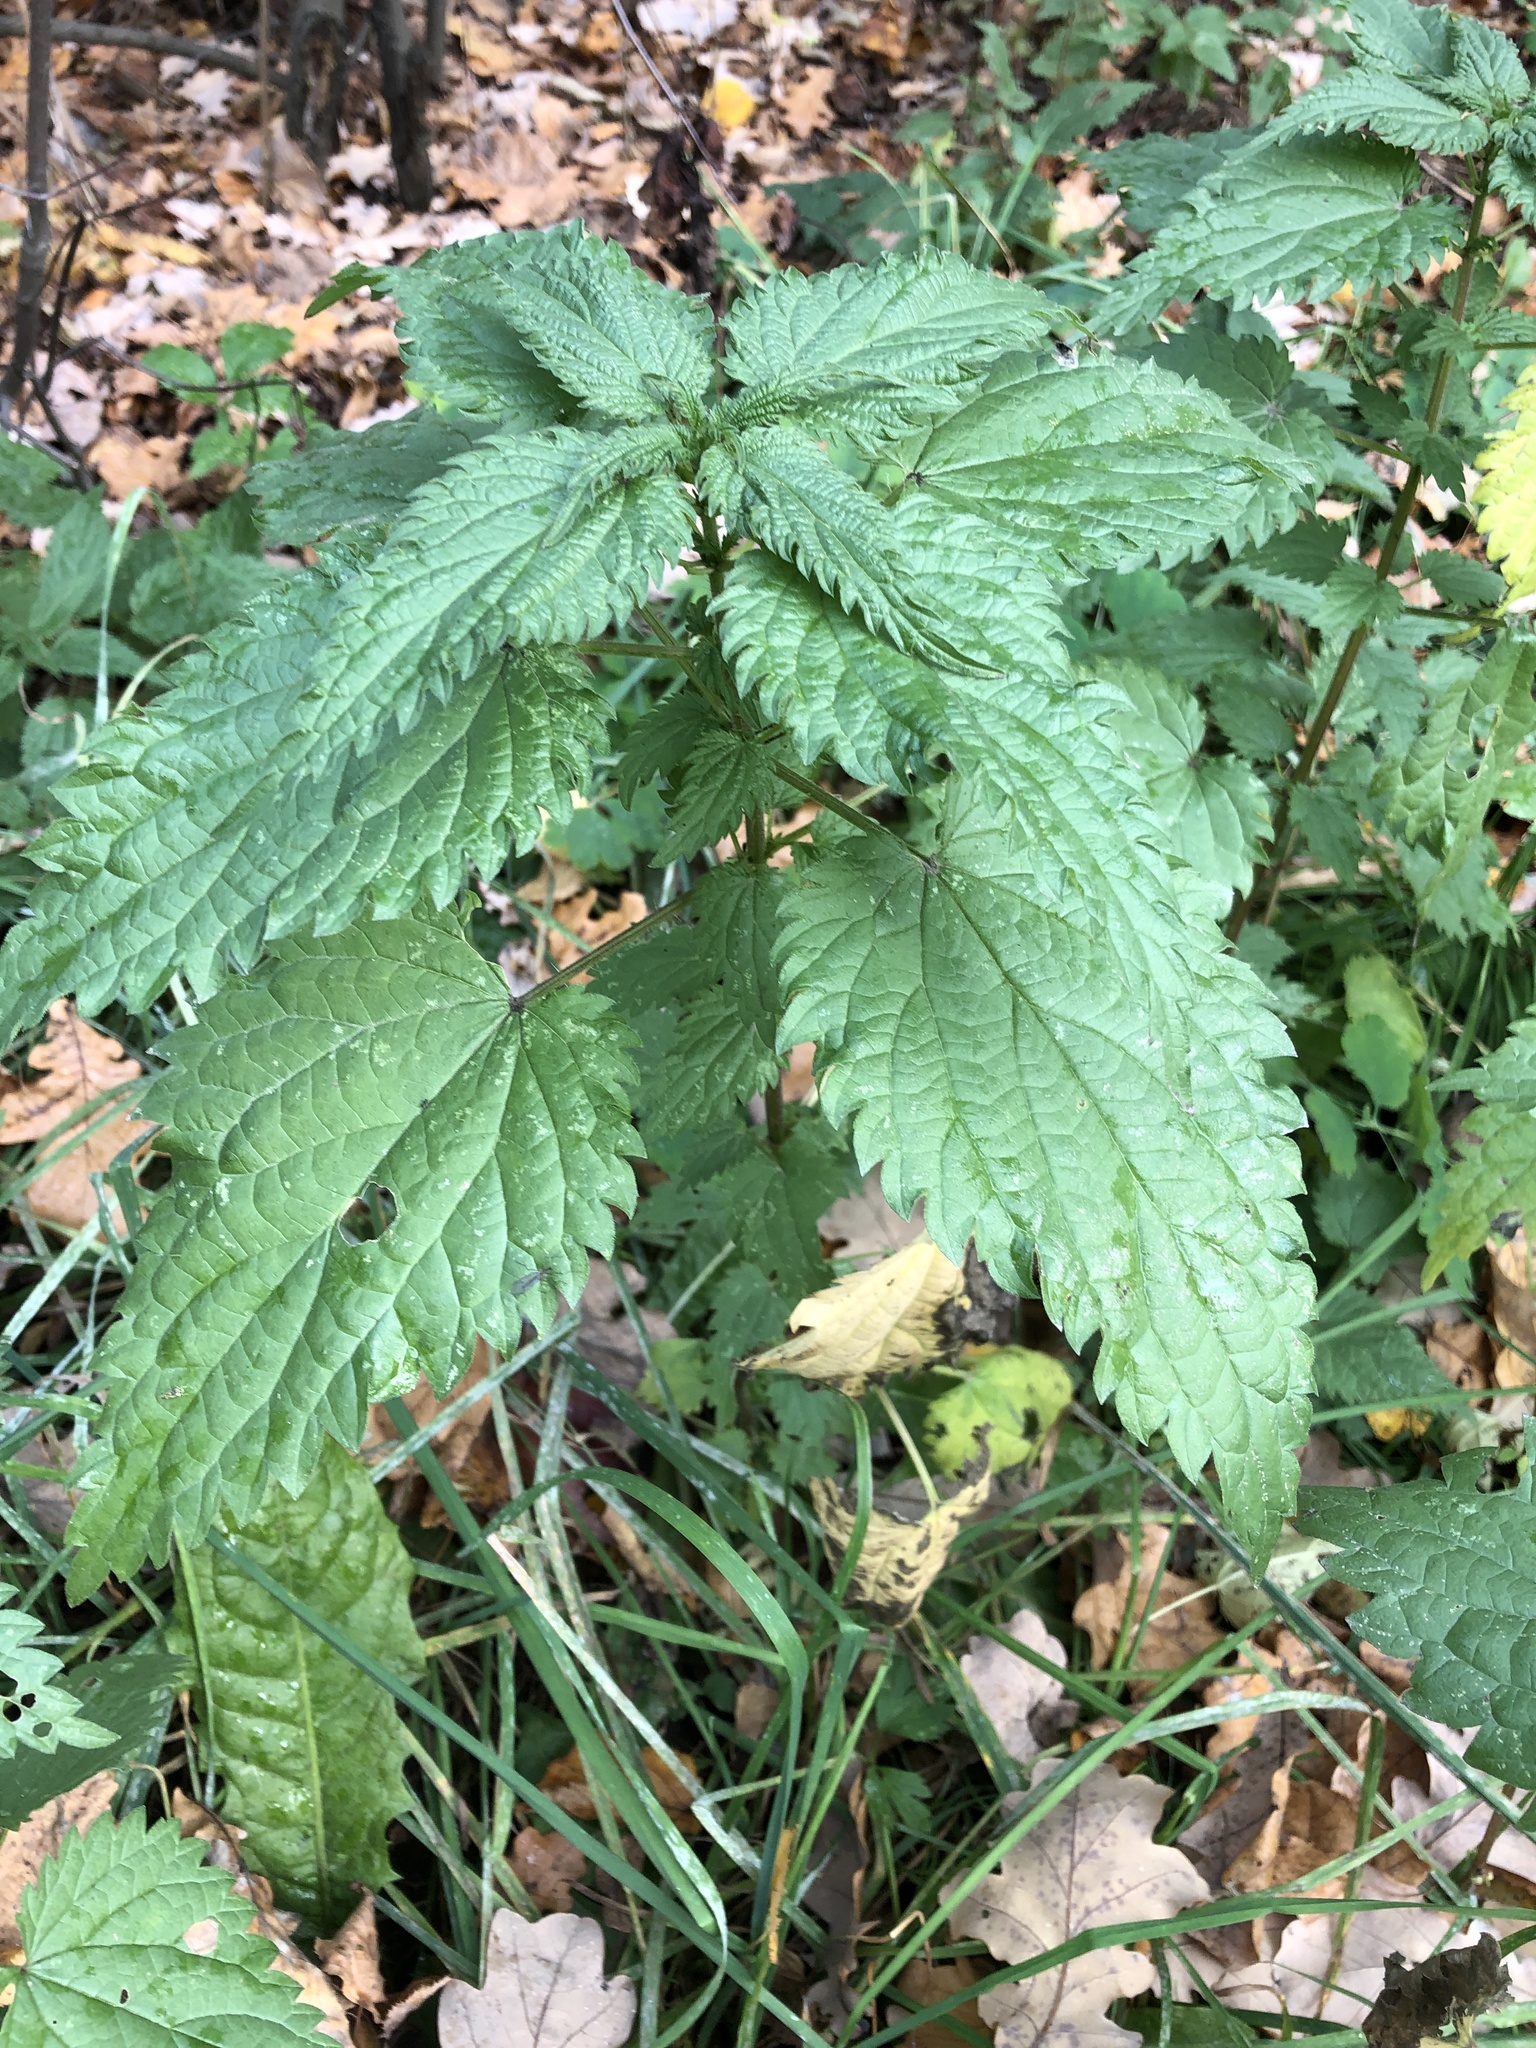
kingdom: Plantae
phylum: Tracheophyta
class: Magnoliopsida
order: Rosales
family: Urticaceae
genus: Urtica
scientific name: Urtica dioica
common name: Common nettle
